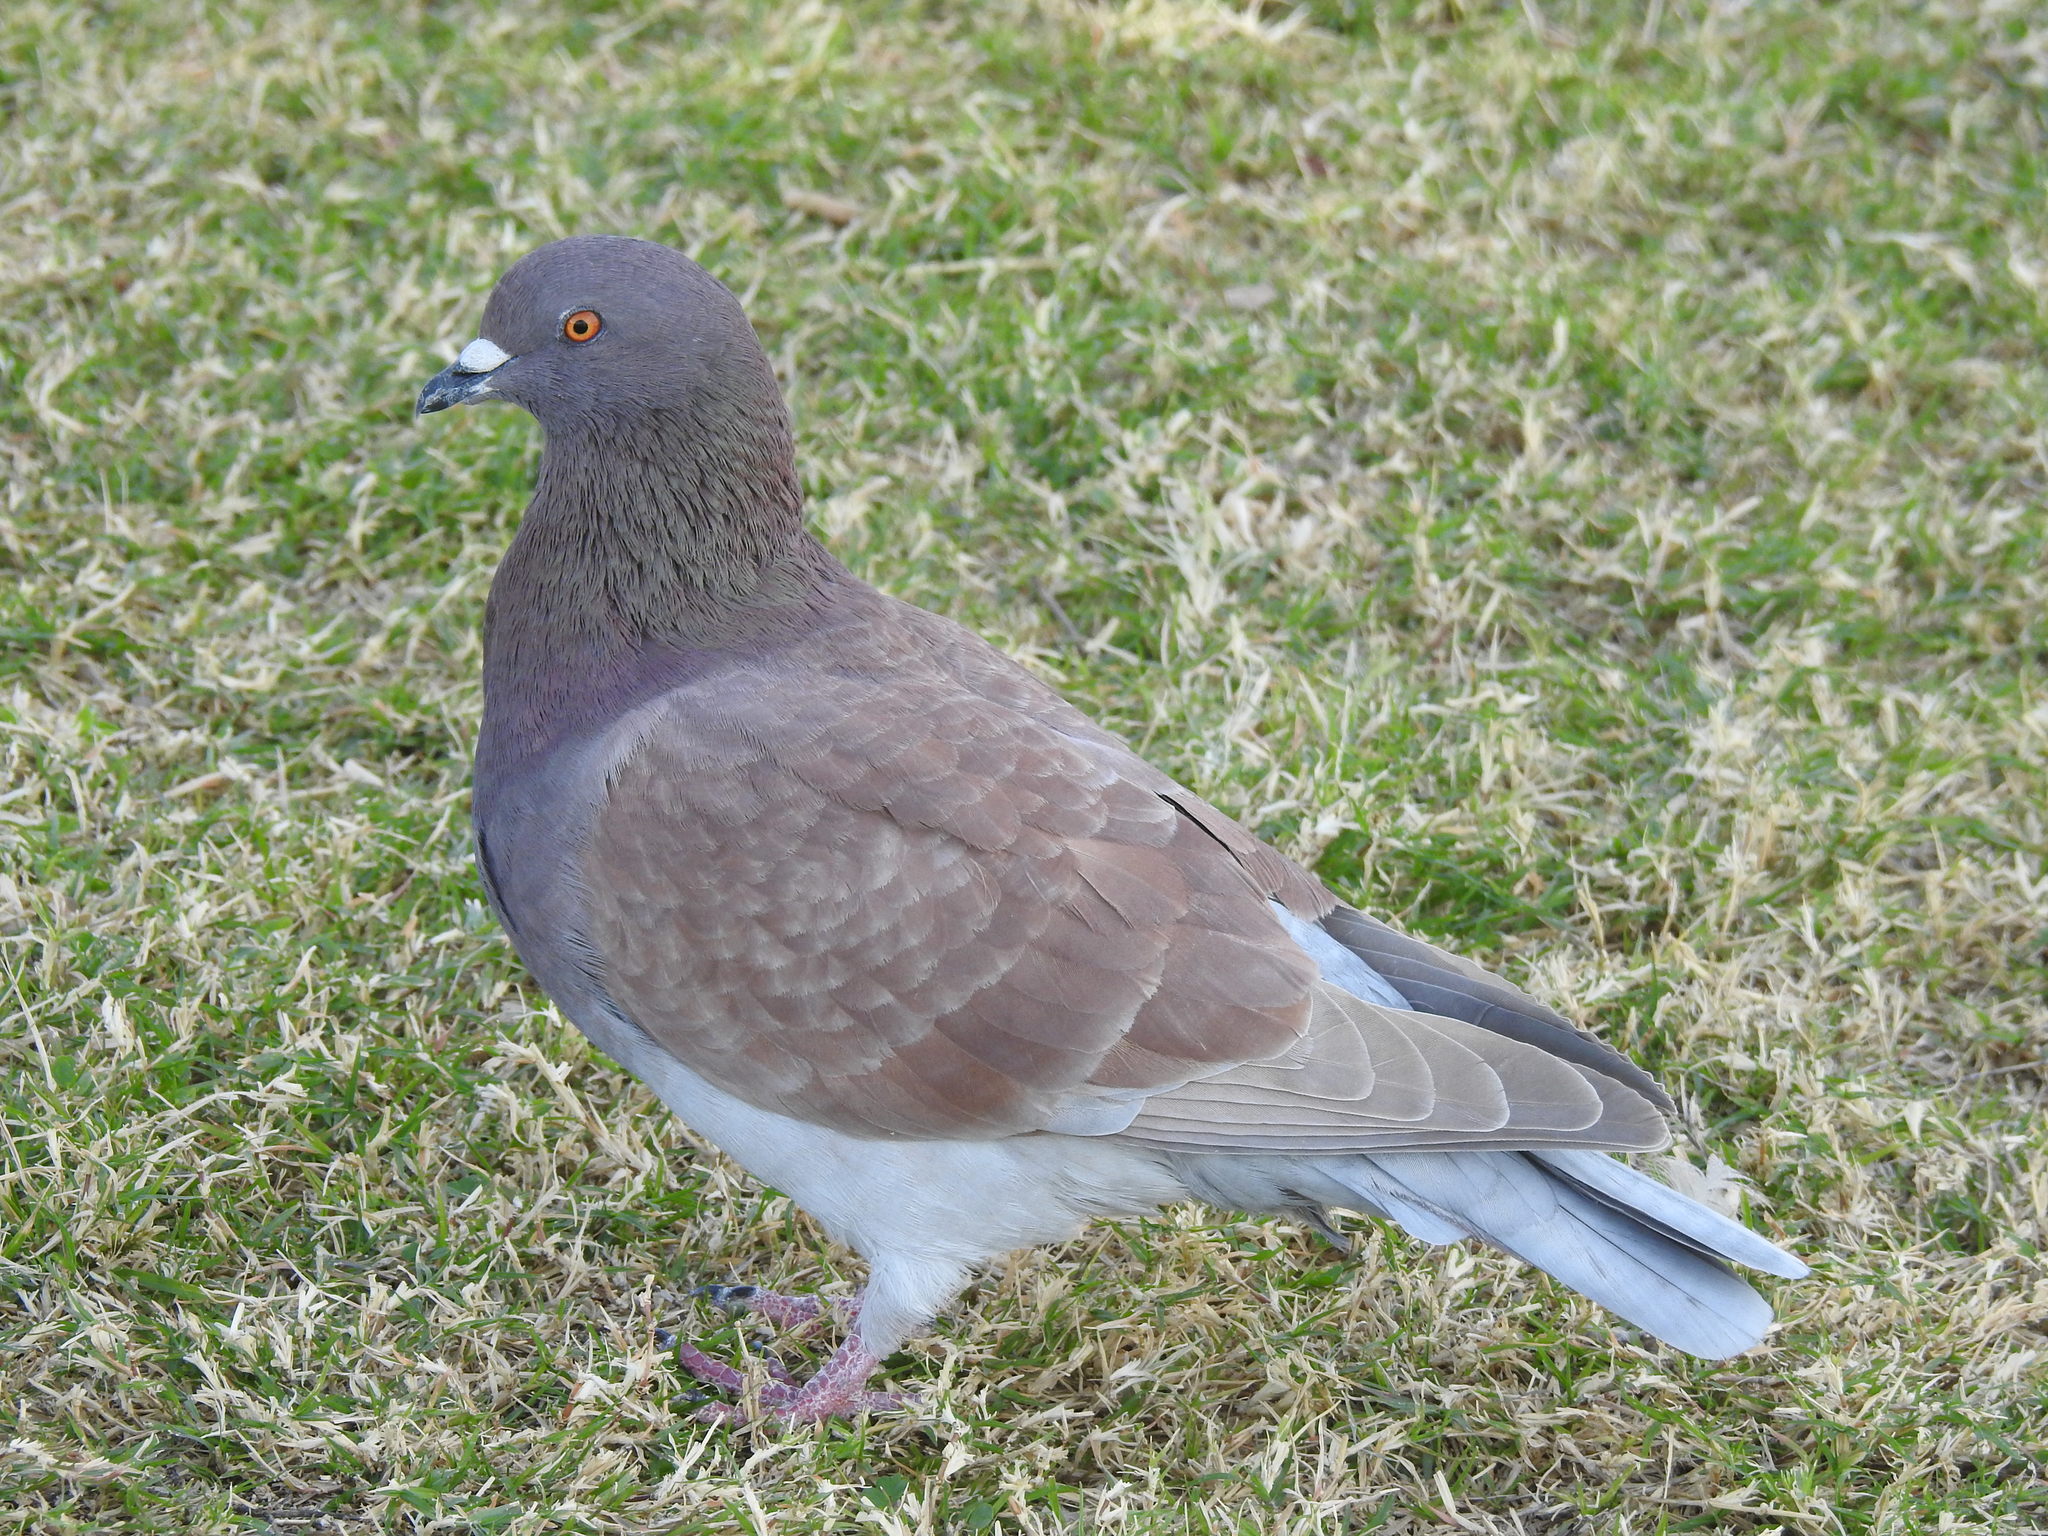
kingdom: Animalia
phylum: Chordata
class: Aves
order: Columbiformes
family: Columbidae
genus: Columba
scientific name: Columba livia
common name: Rock pigeon
